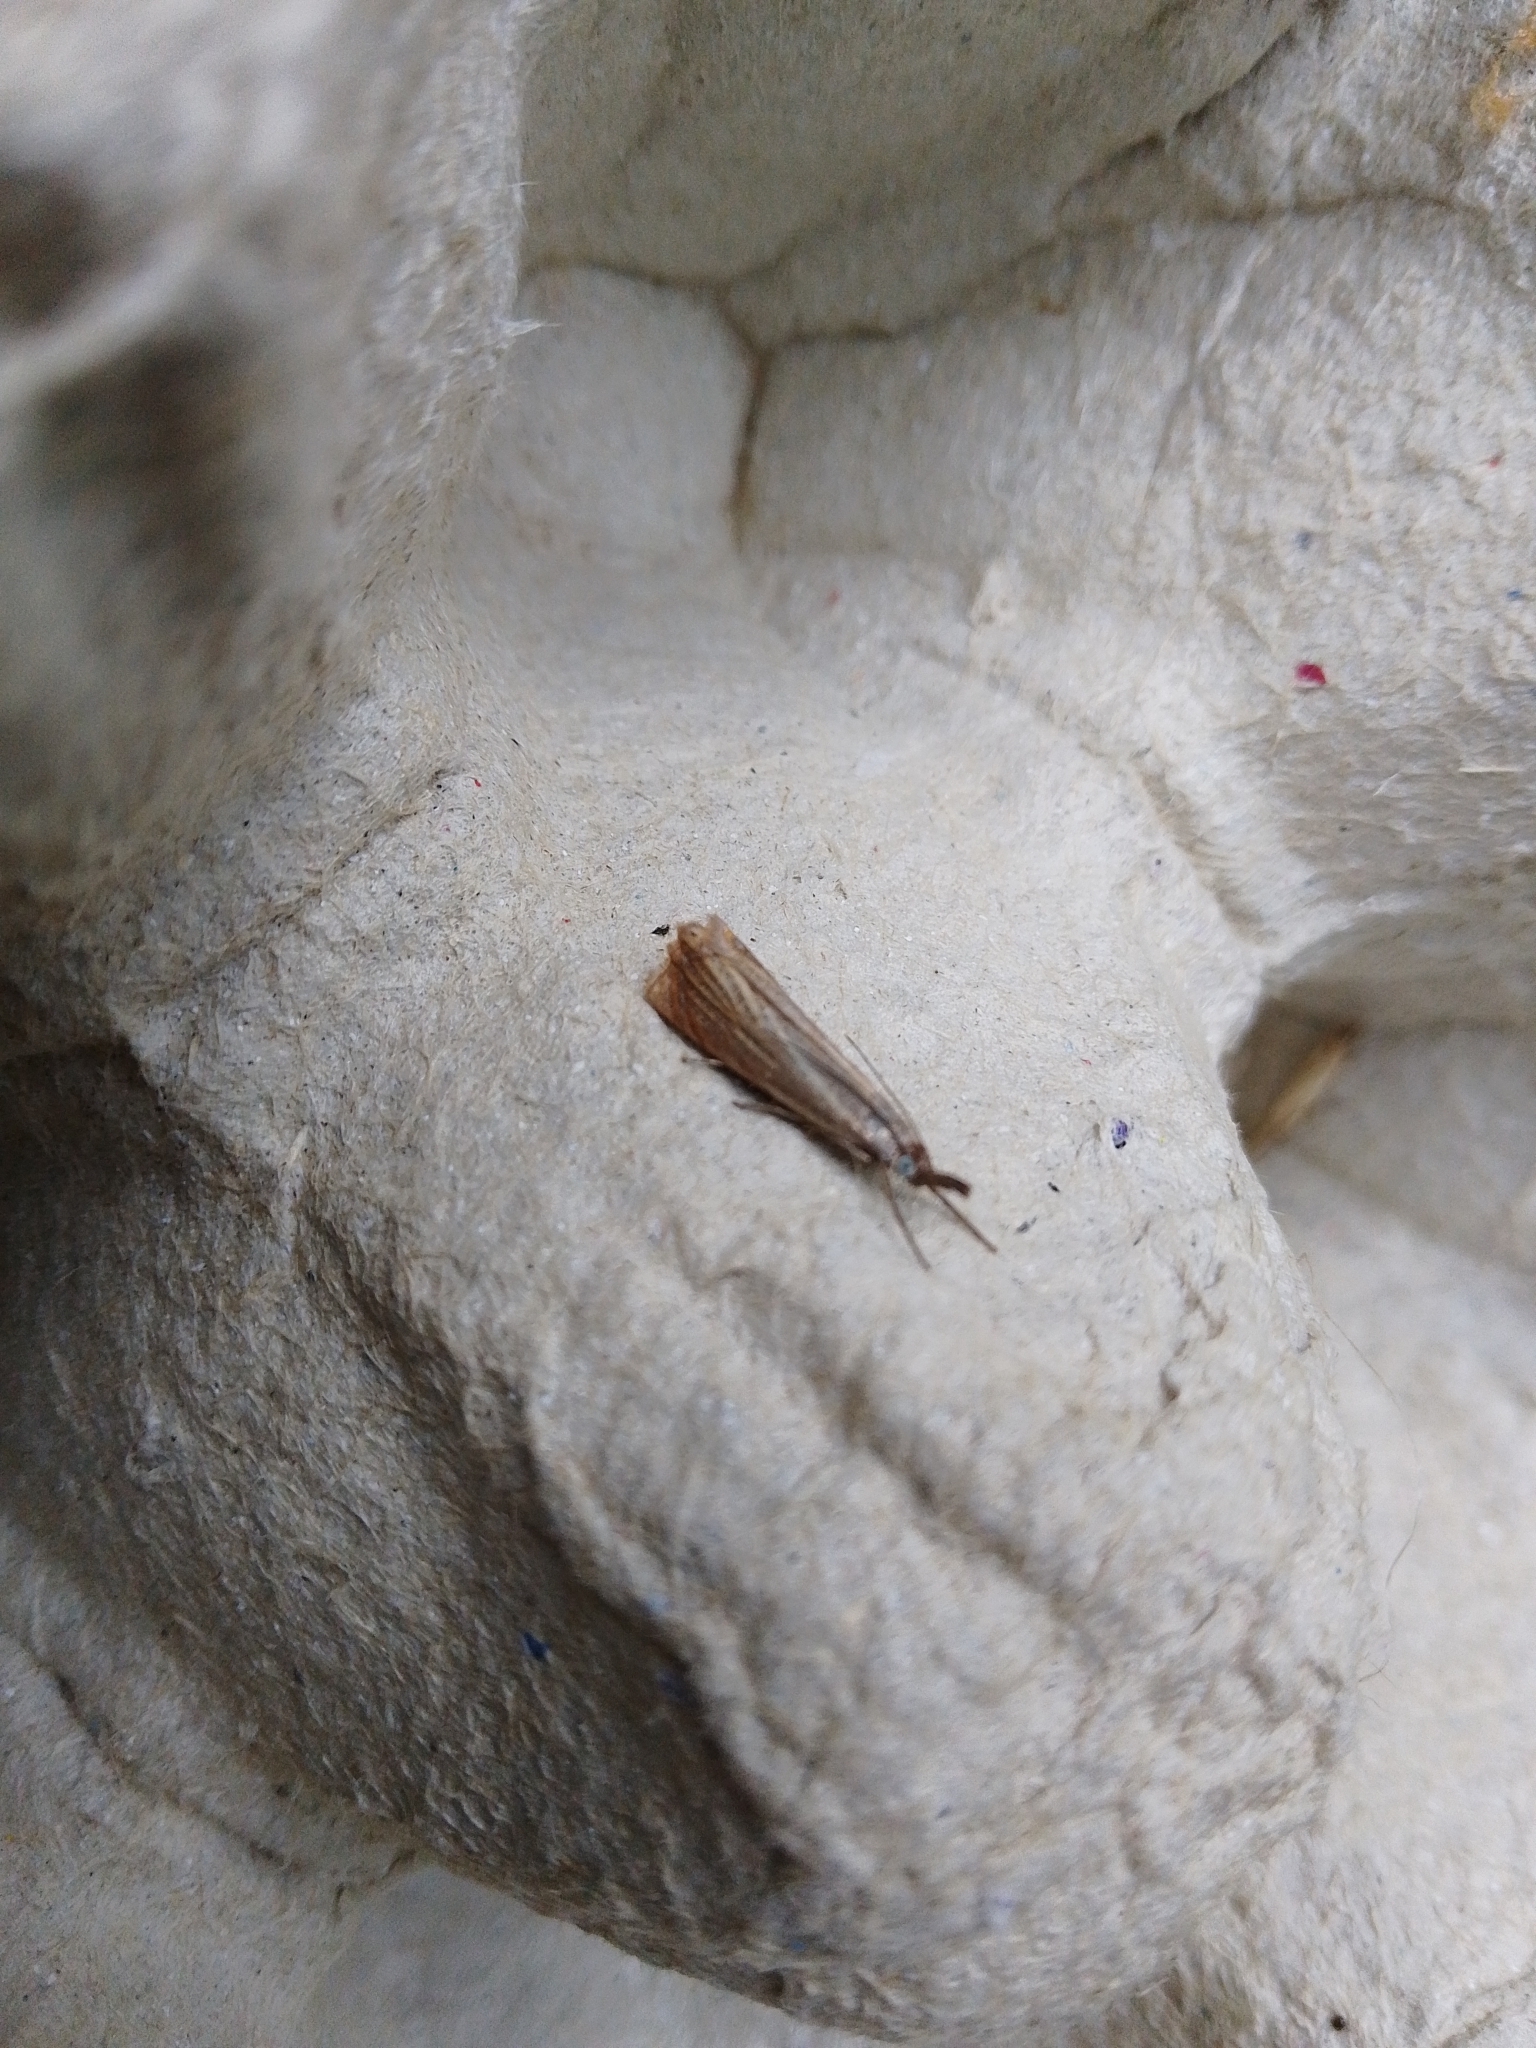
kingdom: Animalia
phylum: Arthropoda
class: Insecta
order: Lepidoptera
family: Crambidae
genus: Chrysoteuchia
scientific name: Chrysoteuchia culmella
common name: Garden grass-veneer
